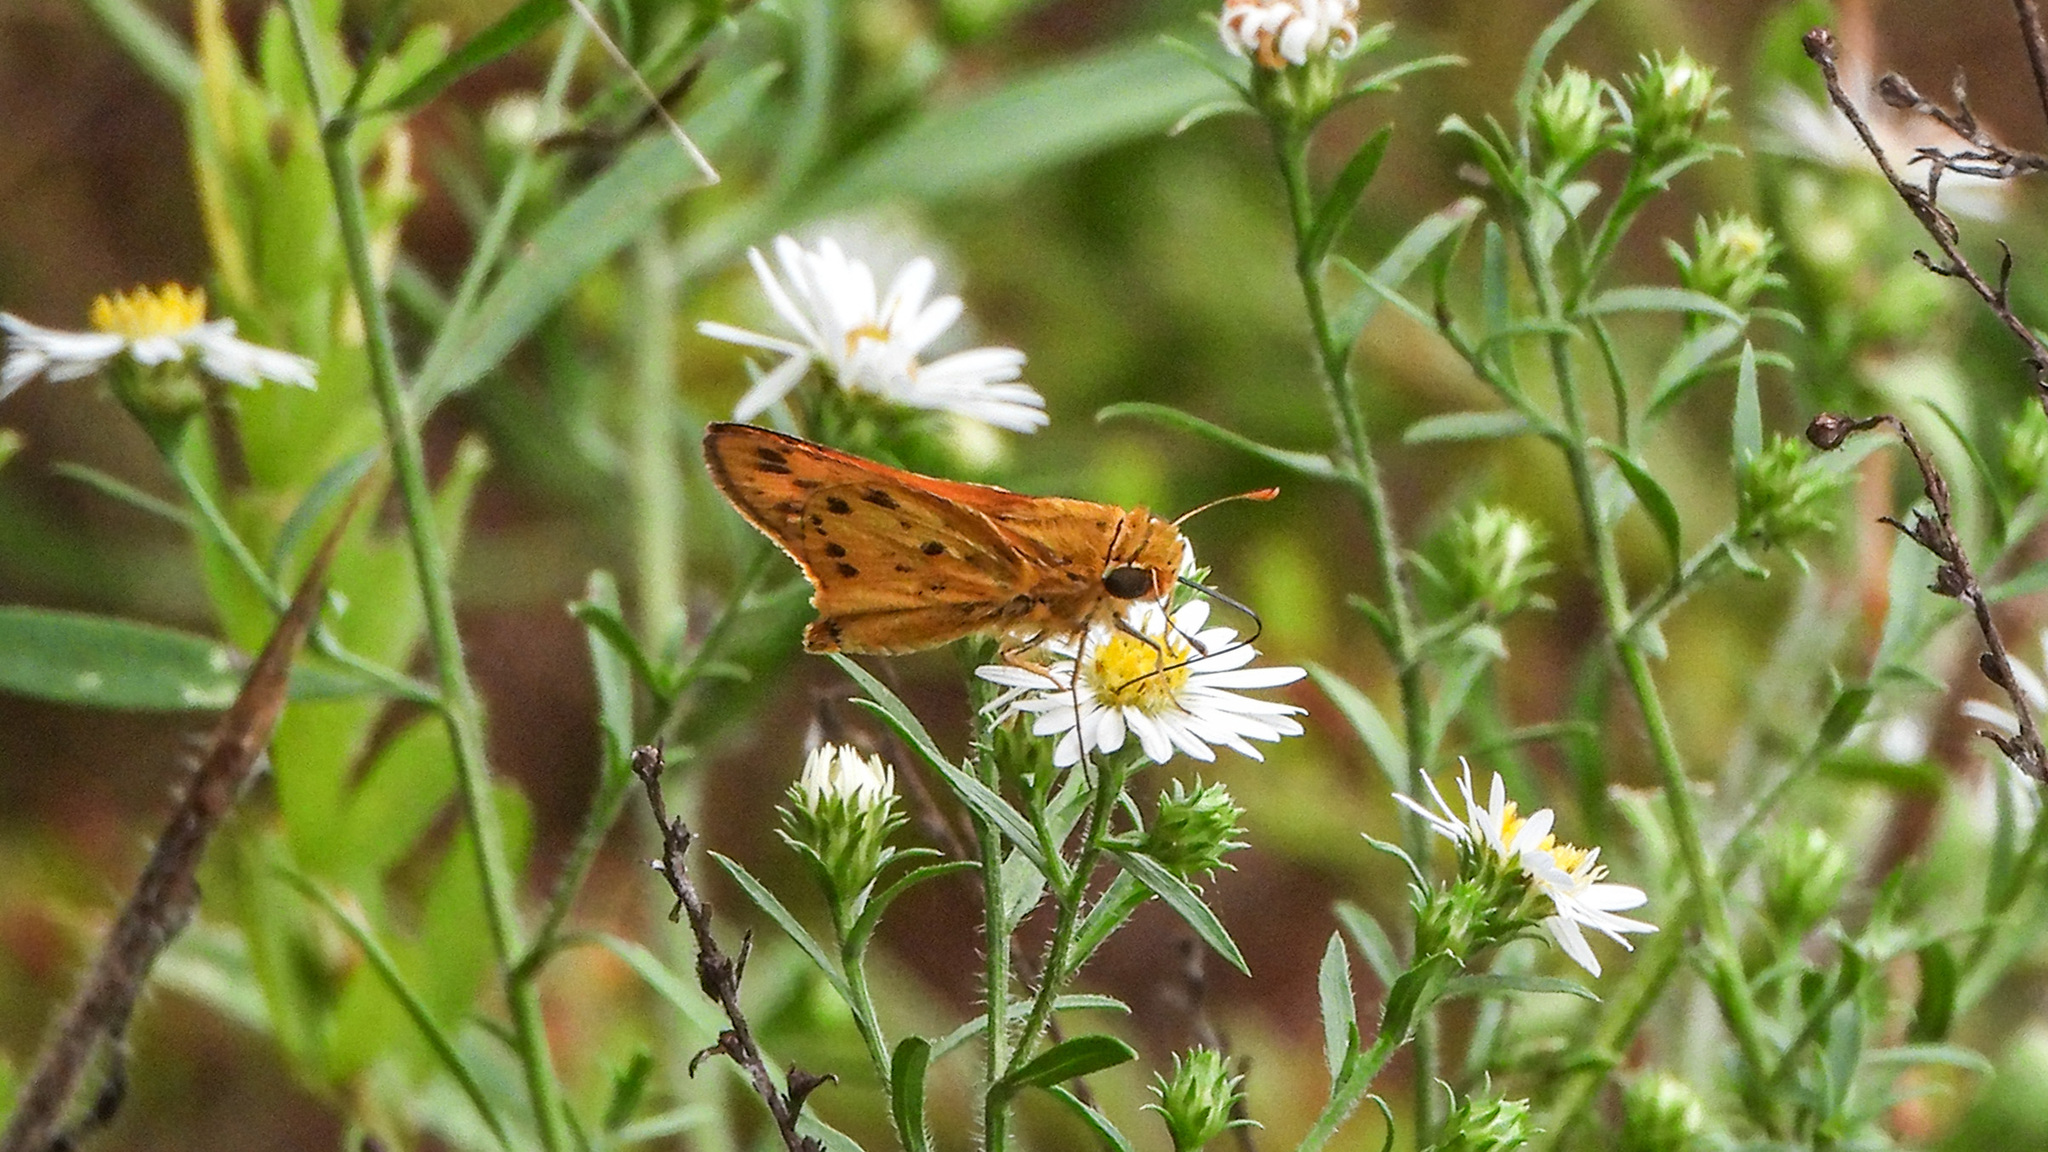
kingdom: Animalia
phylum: Arthropoda
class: Insecta
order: Lepidoptera
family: Hesperiidae
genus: Hylephila
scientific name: Hylephila phyleus
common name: Fiery skipper
